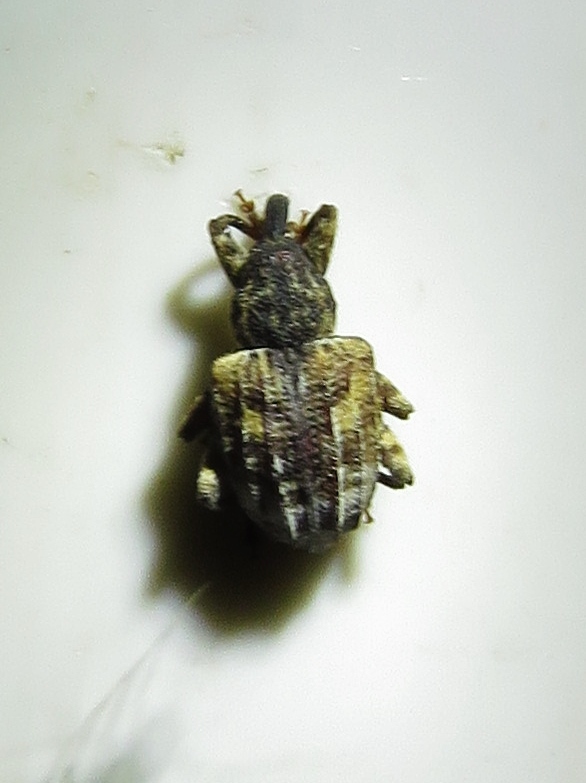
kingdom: Animalia
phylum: Arthropoda
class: Insecta
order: Coleoptera
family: Curculionidae
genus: Conotrachelus
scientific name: Conotrachelus anaglypticus
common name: Cambium curculio
